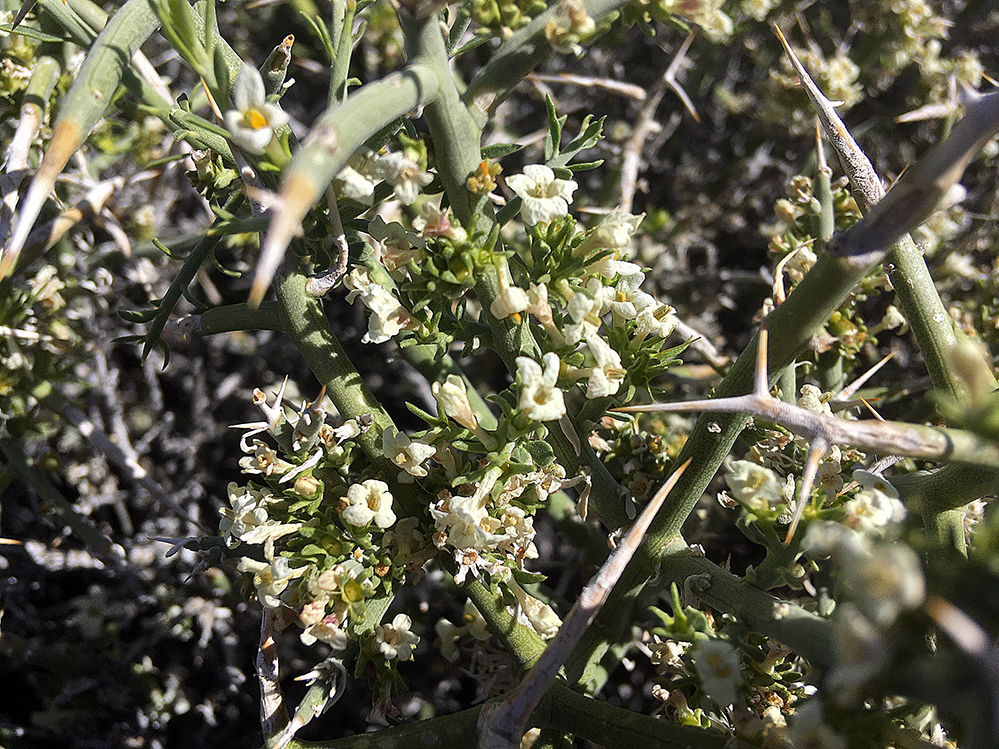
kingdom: Plantae
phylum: Tracheophyta
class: Magnoliopsida
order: Lamiales
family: Oleaceae
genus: Menodora
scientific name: Menodora spinescens
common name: Spiny menodora
